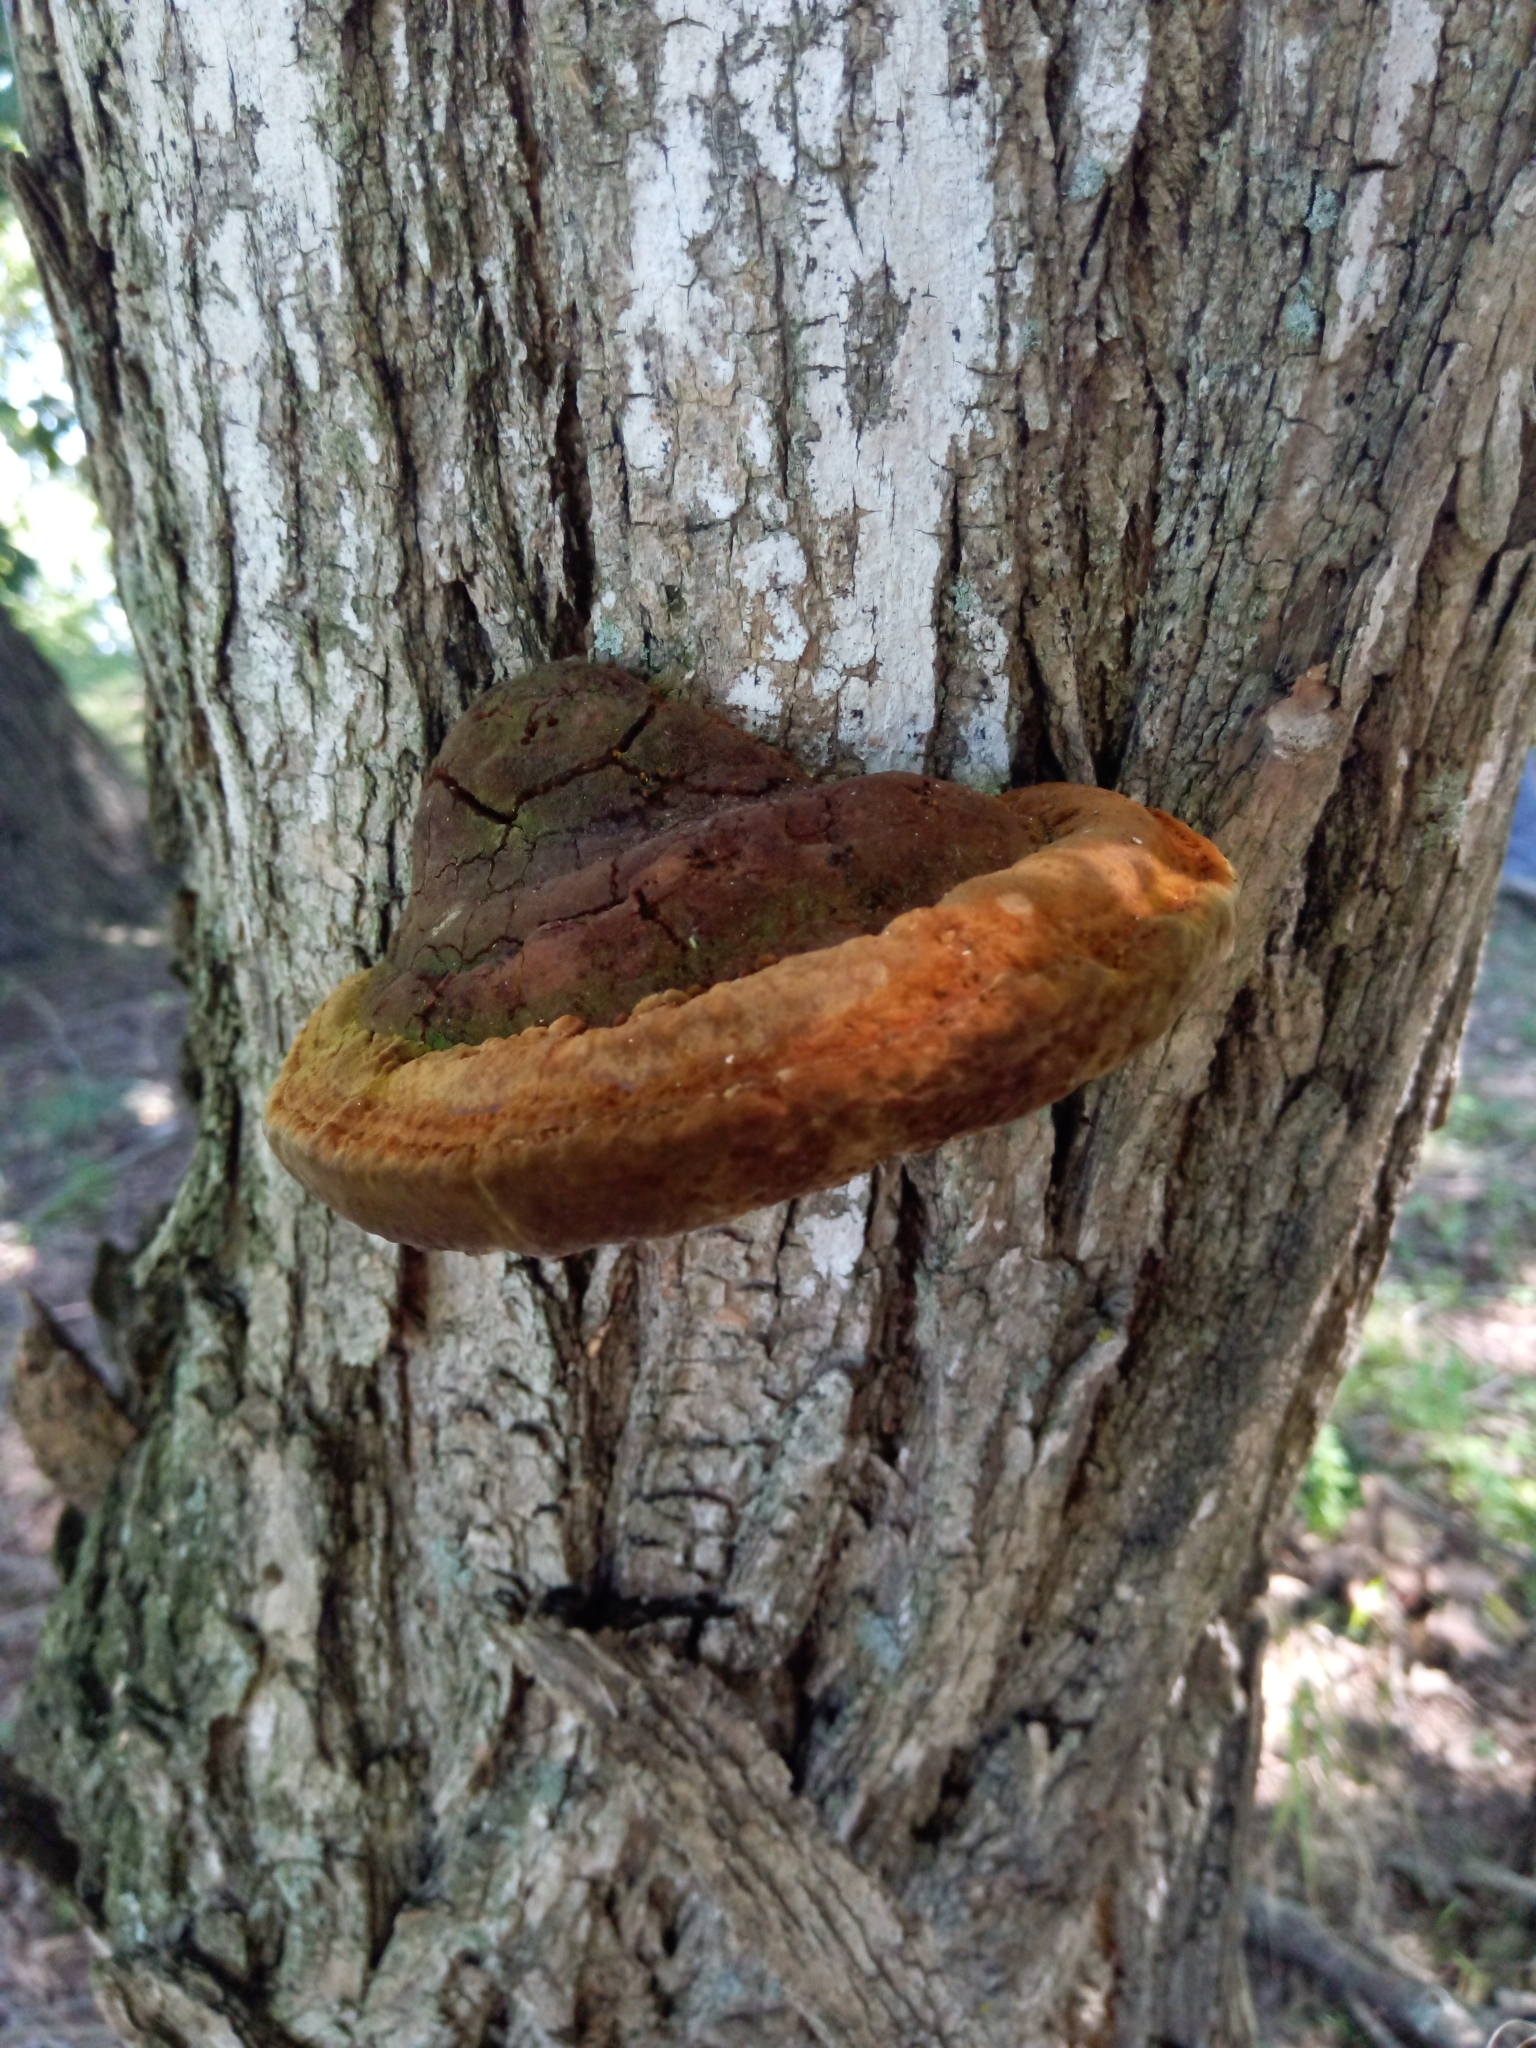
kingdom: Fungi
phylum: Basidiomycota
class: Agaricomycetes
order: Hymenochaetales
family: Hymenochaetaceae
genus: Phellinus
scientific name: Phellinus robiniae
